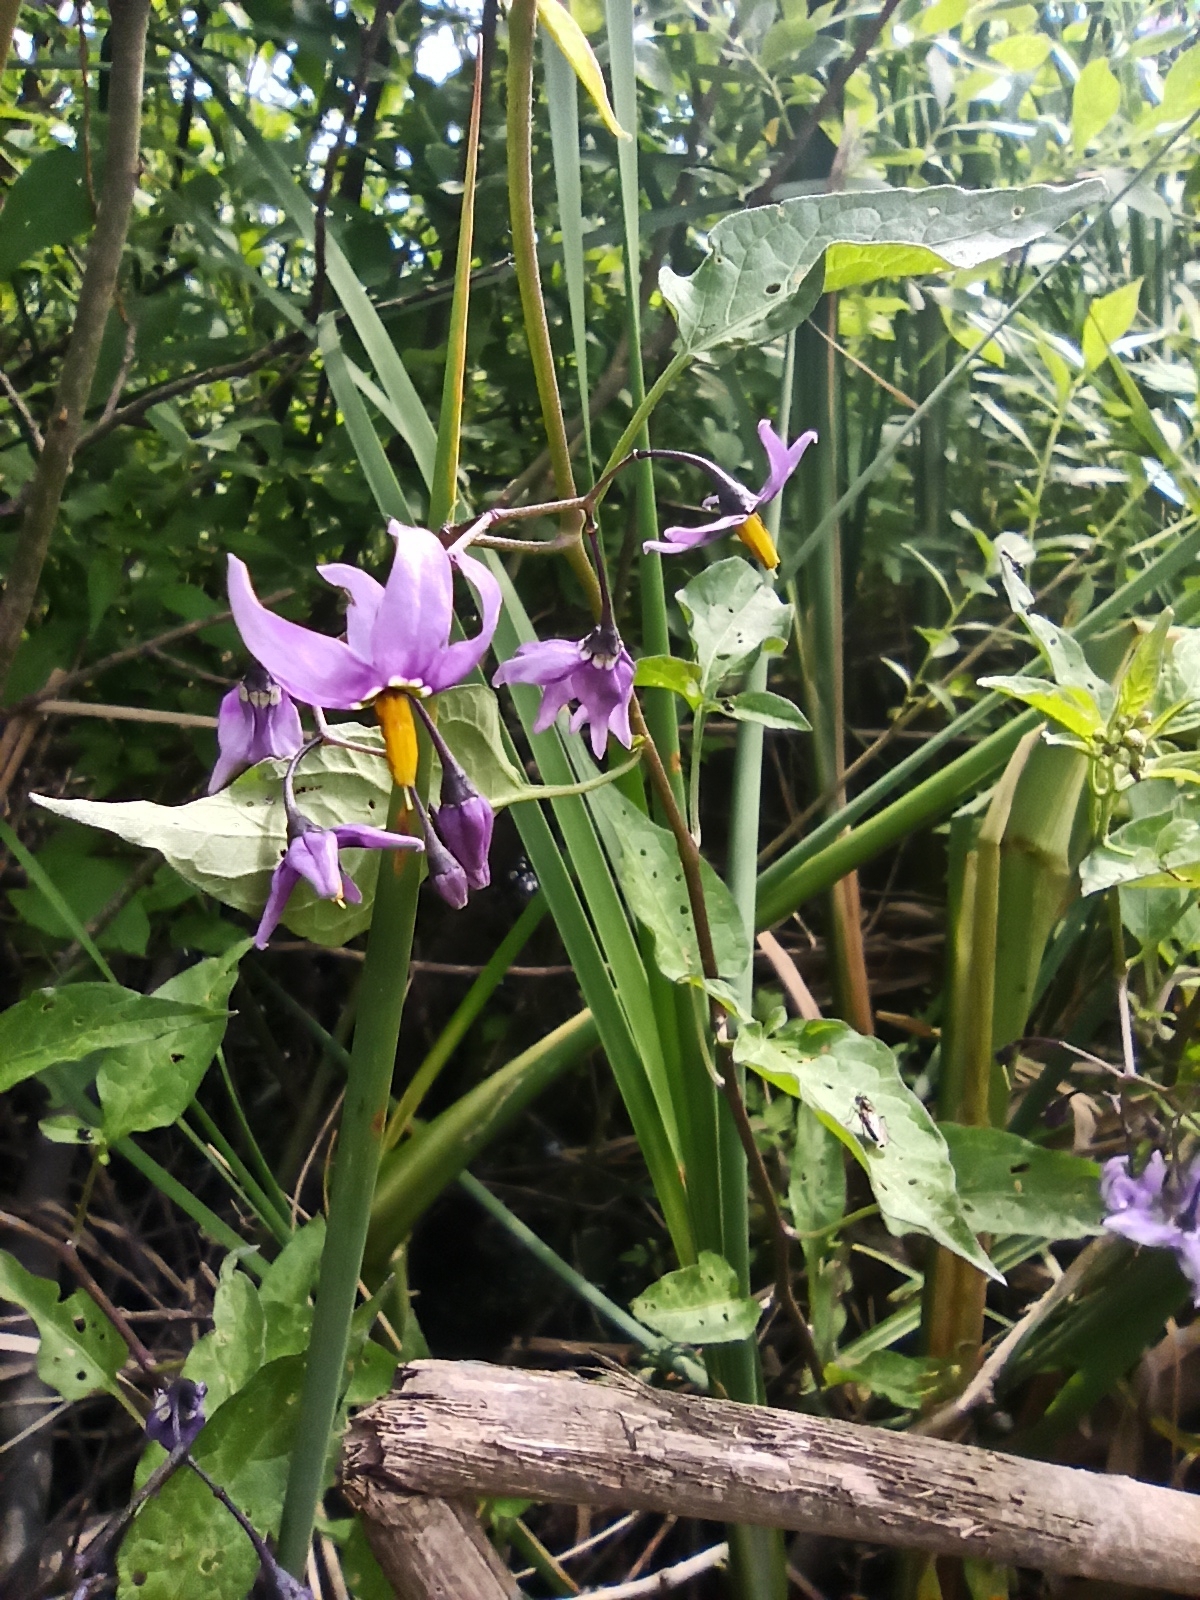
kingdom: Plantae
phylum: Tracheophyta
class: Magnoliopsida
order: Solanales
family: Solanaceae
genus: Solanum
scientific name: Solanum dulcamara
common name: Climbing nightshade
